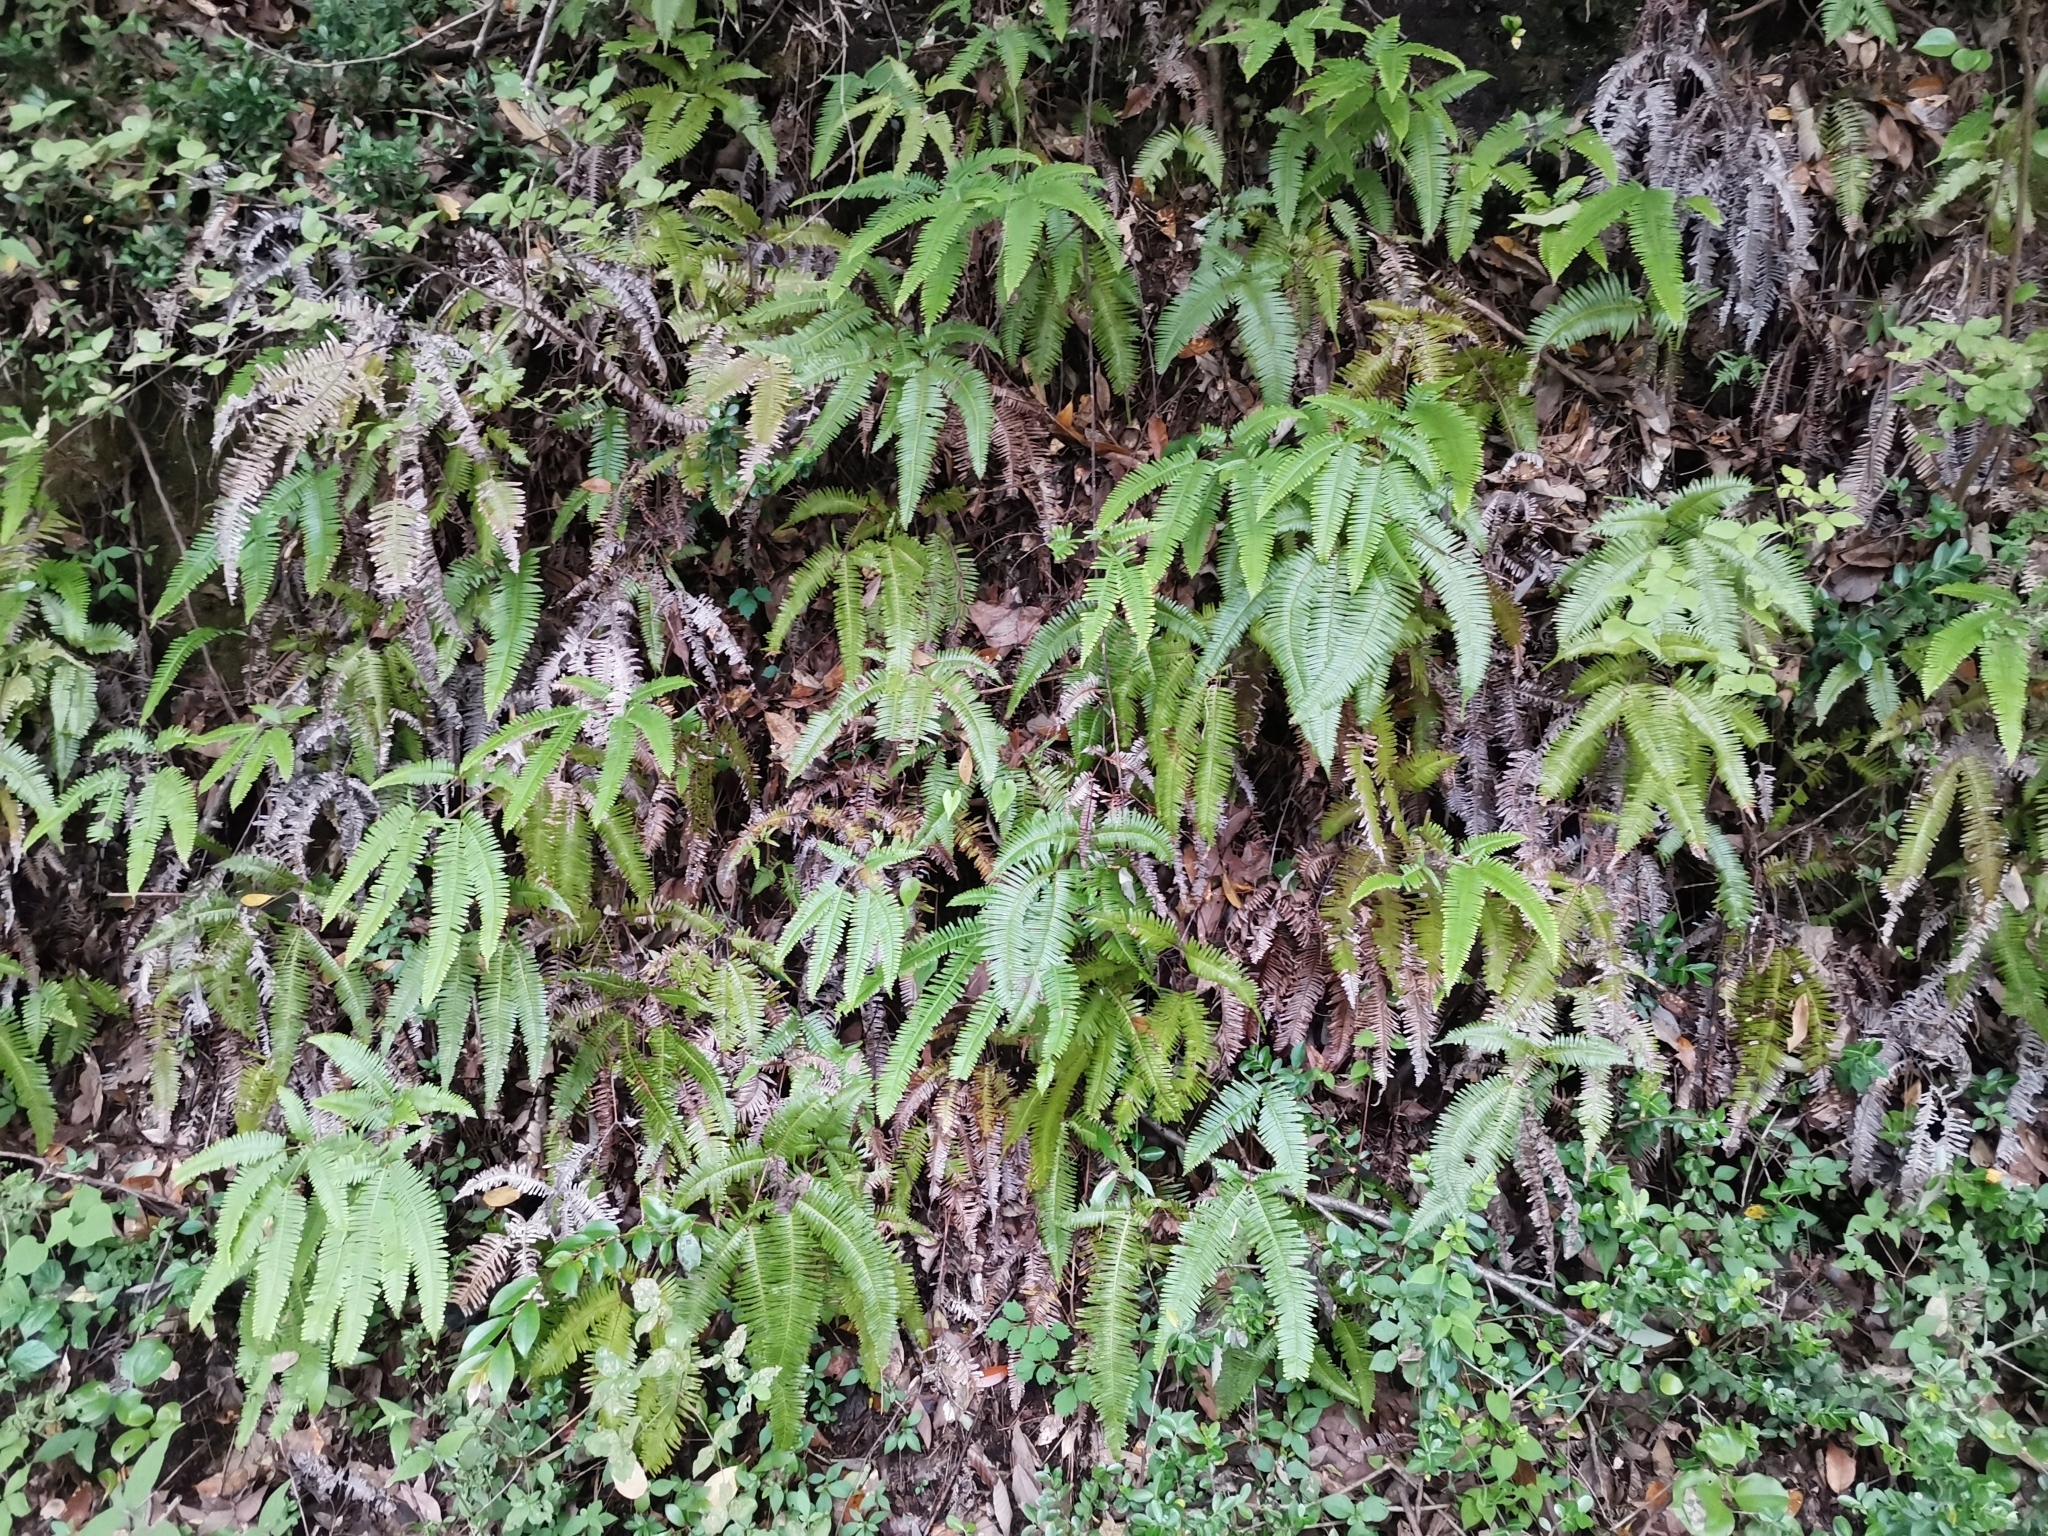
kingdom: Plantae
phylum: Tracheophyta
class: Polypodiopsida
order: Gleicheniales
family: Gleicheniaceae
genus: Dicranopteris
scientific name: Dicranopteris linearis
